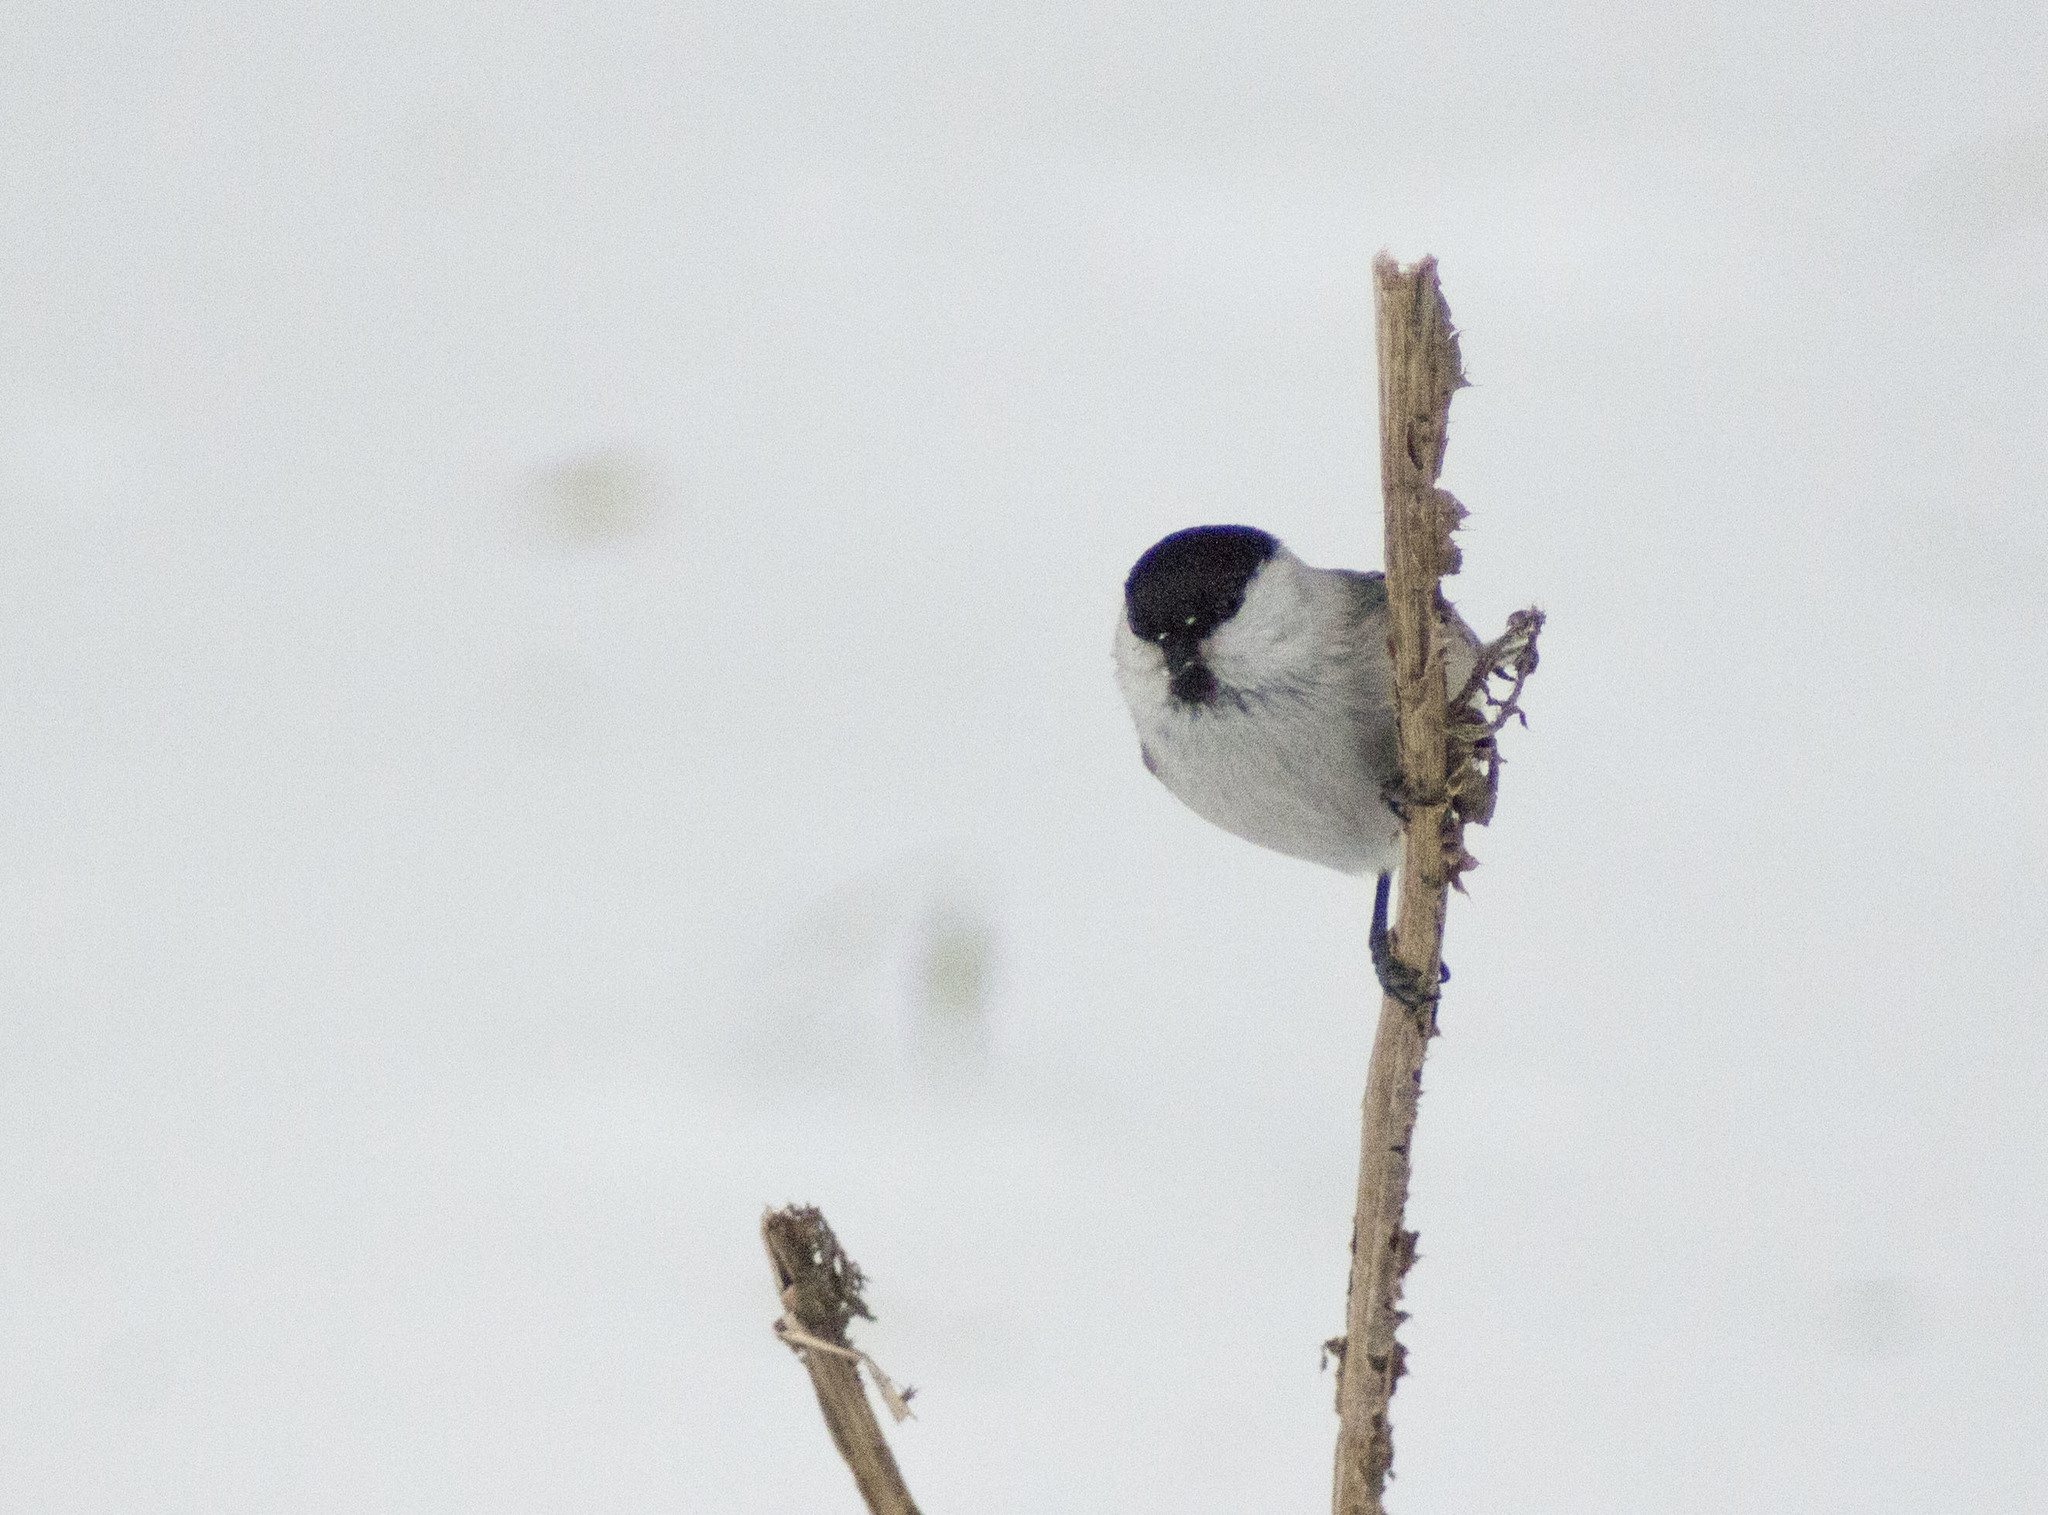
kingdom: Animalia
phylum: Chordata
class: Aves
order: Passeriformes
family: Paridae
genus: Poecile
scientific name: Poecile montanus
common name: Willow tit
